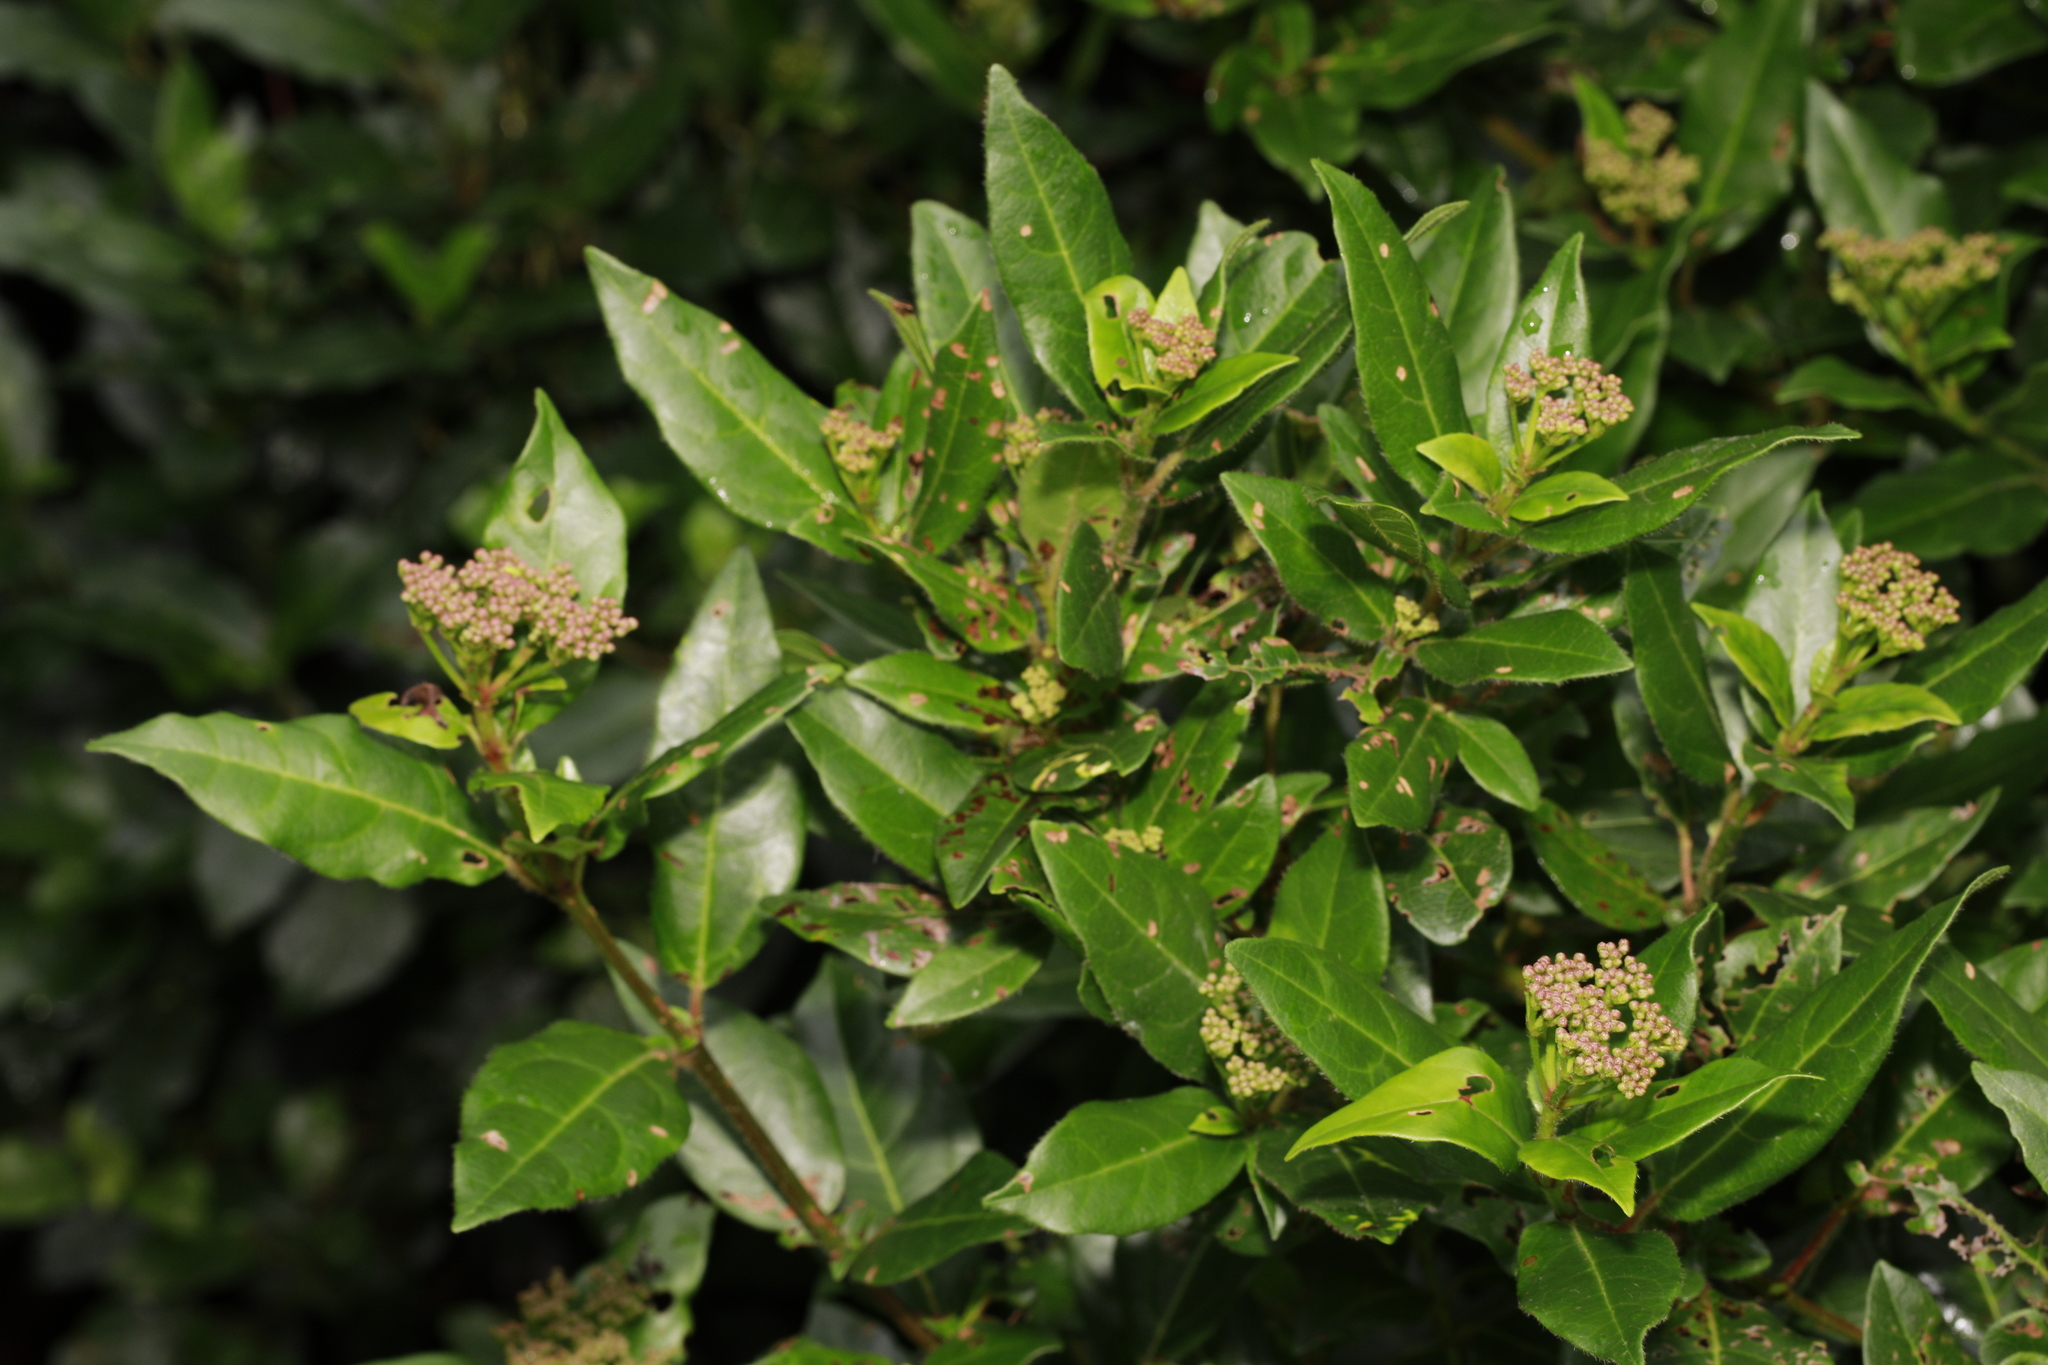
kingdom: Plantae
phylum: Tracheophyta
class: Magnoliopsida
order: Dipsacales
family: Viburnaceae
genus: Viburnum
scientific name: Viburnum tinus
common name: Laurustinus
